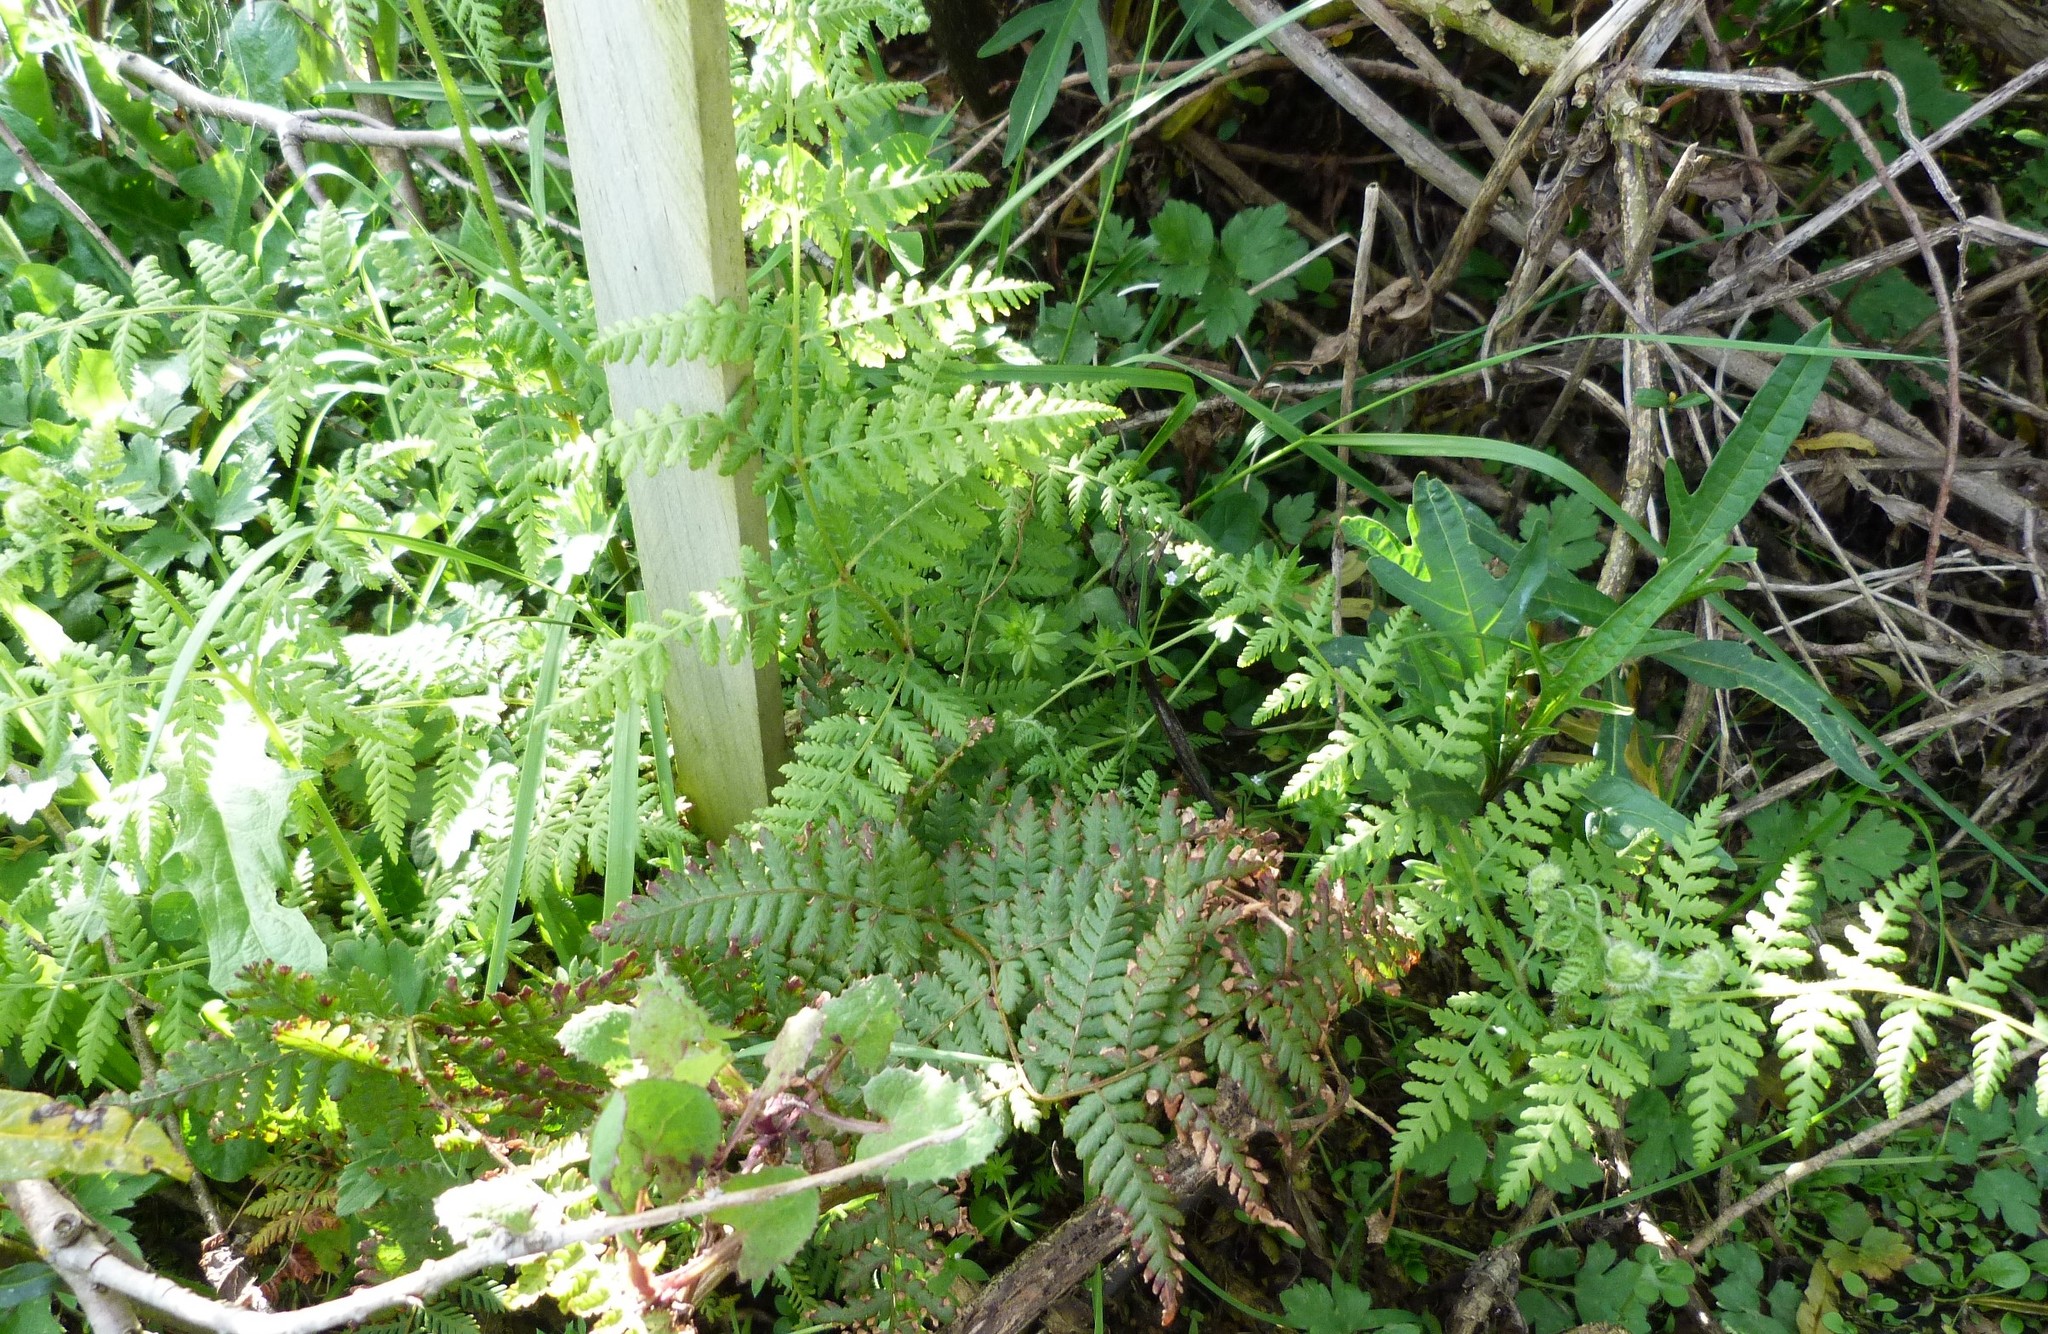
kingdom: Plantae
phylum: Tracheophyta
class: Polypodiopsida
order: Polypodiales
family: Dennstaedtiaceae
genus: Hypolepis
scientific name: Hypolepis ambigua
